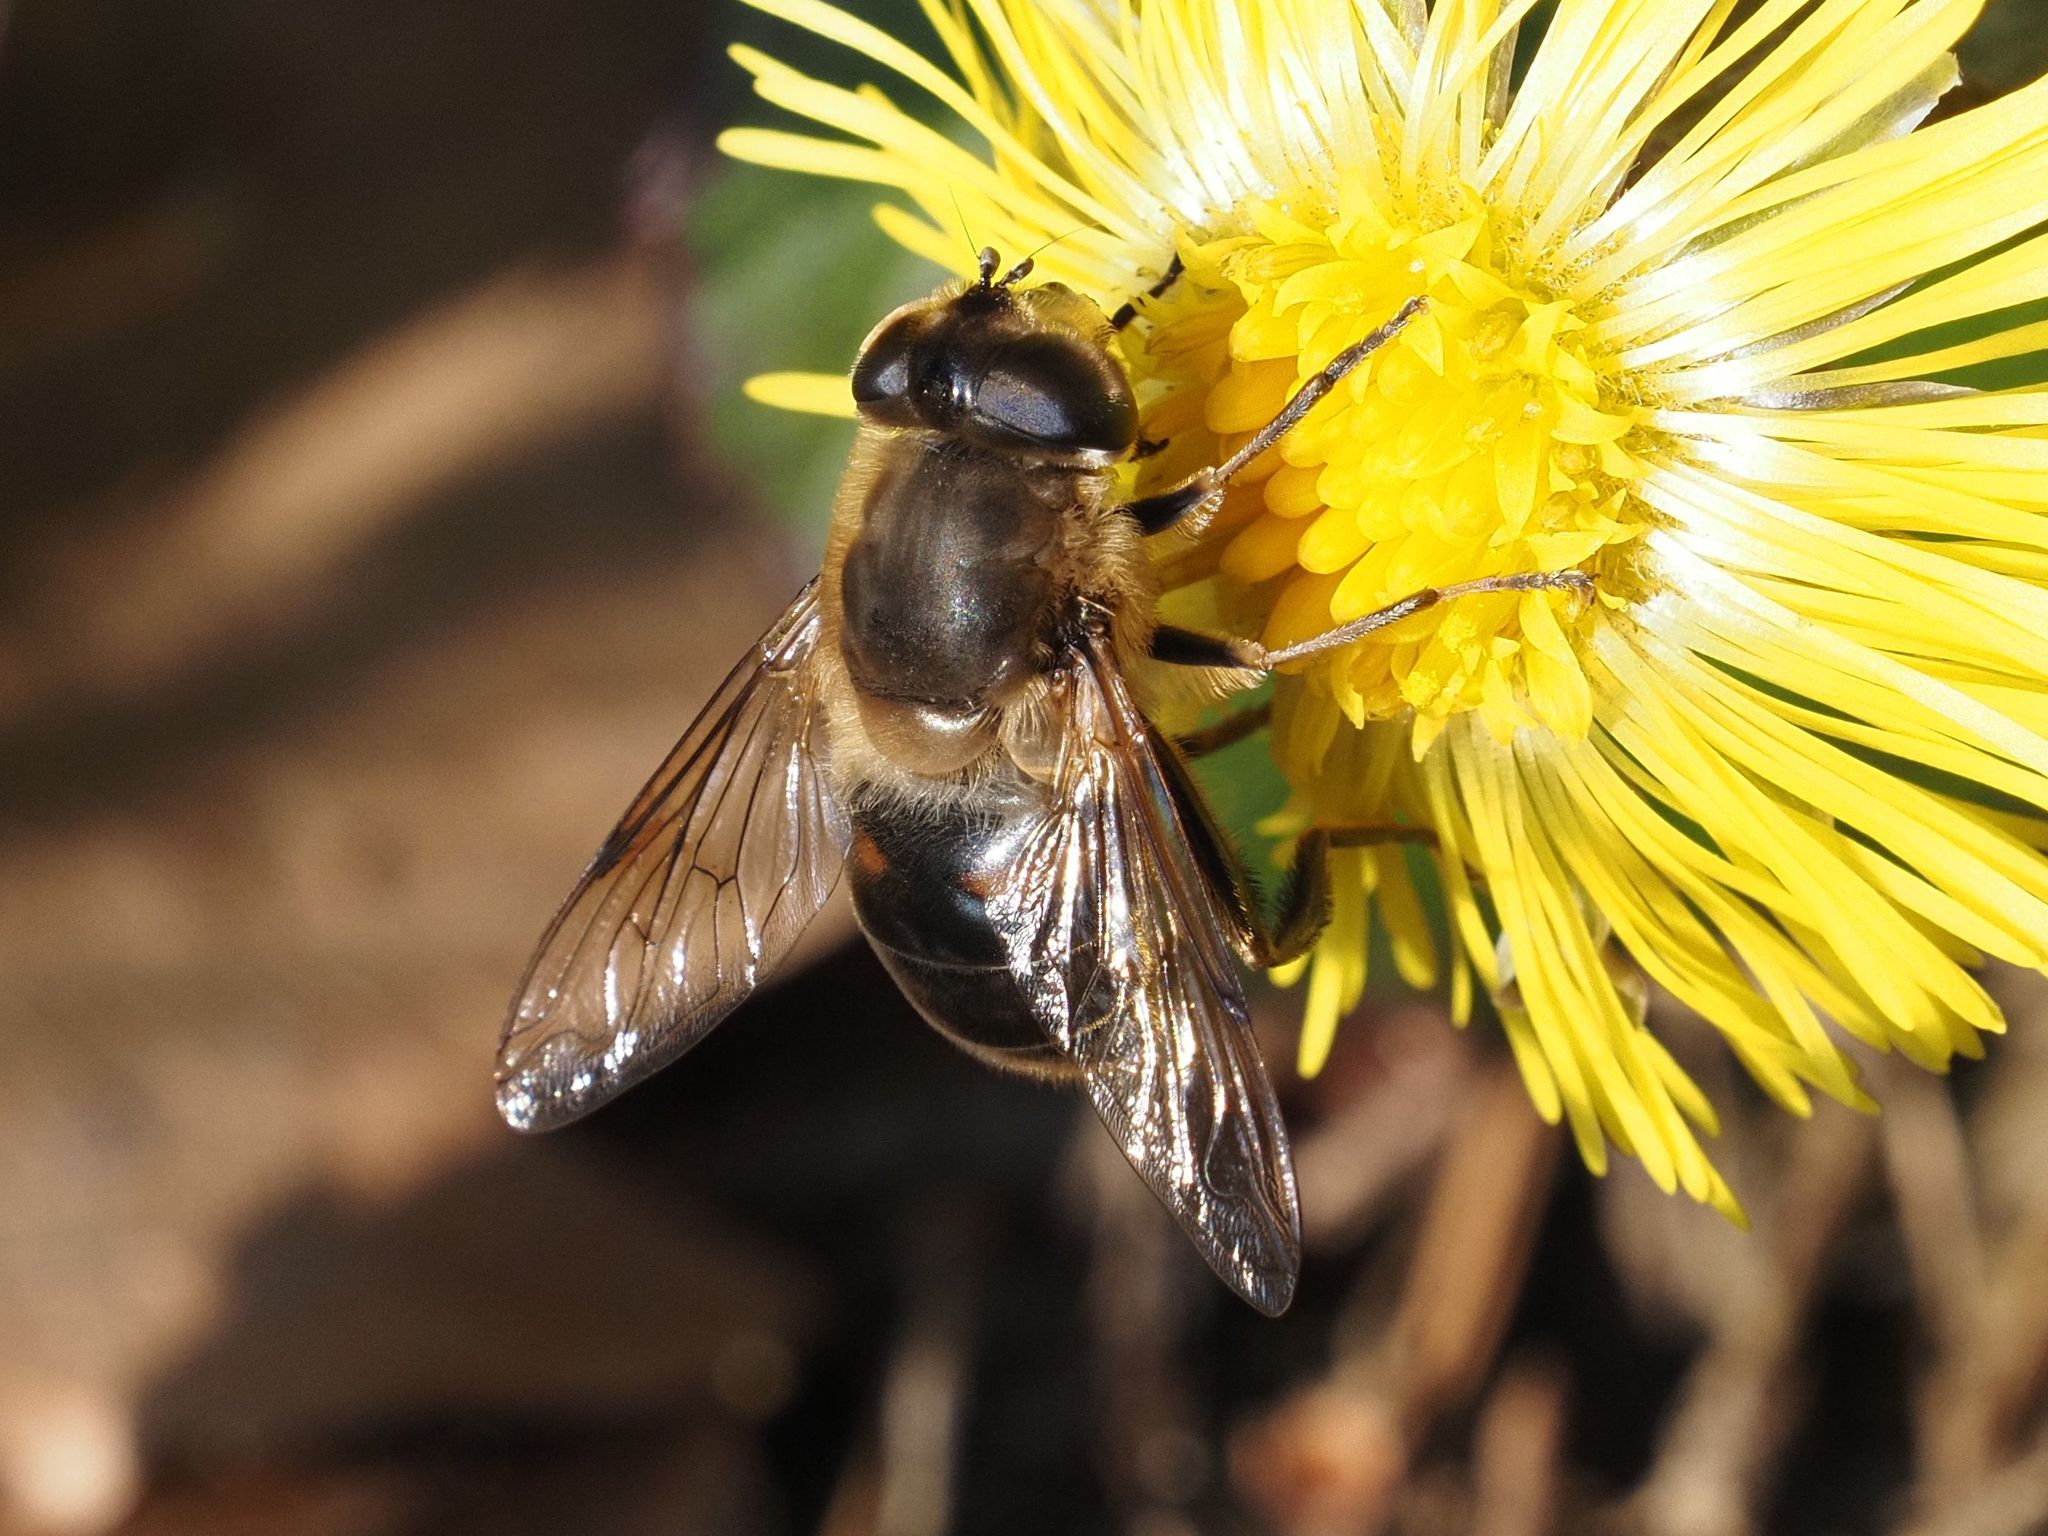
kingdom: Animalia
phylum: Arthropoda
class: Insecta
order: Diptera
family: Syrphidae
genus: Eristalis
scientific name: Eristalis tenax
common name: Drone fly
